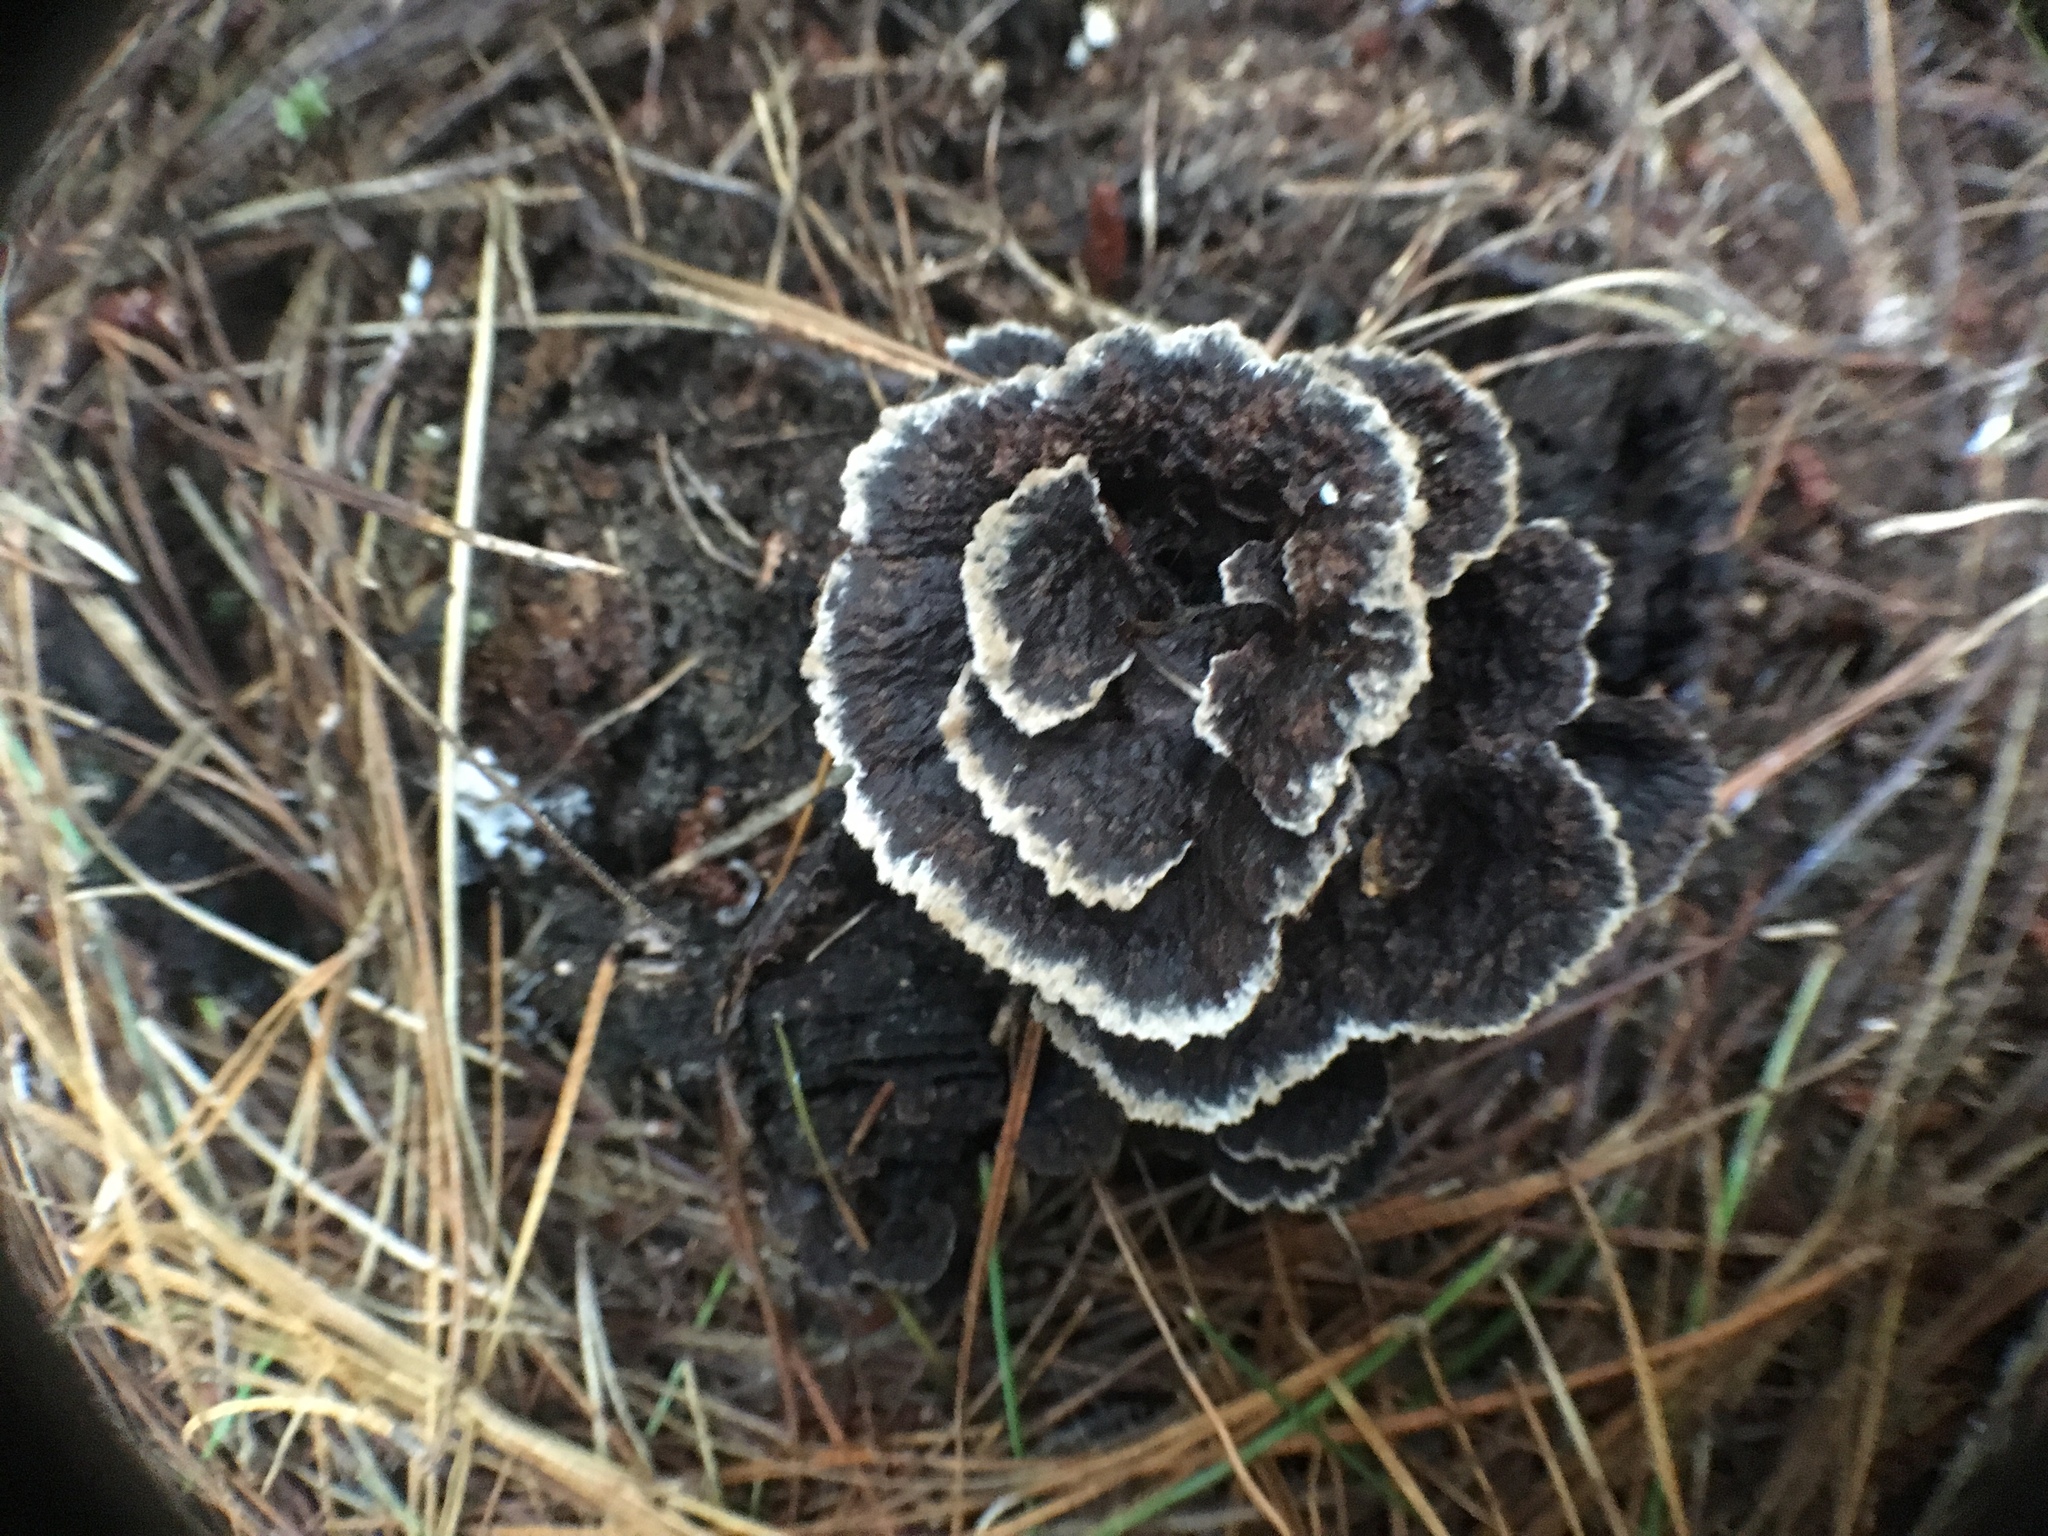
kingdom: Fungi
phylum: Basidiomycota
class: Agaricomycetes
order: Thelephorales
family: Thelephoraceae
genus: Thelephora
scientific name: Thelephora terrestris
